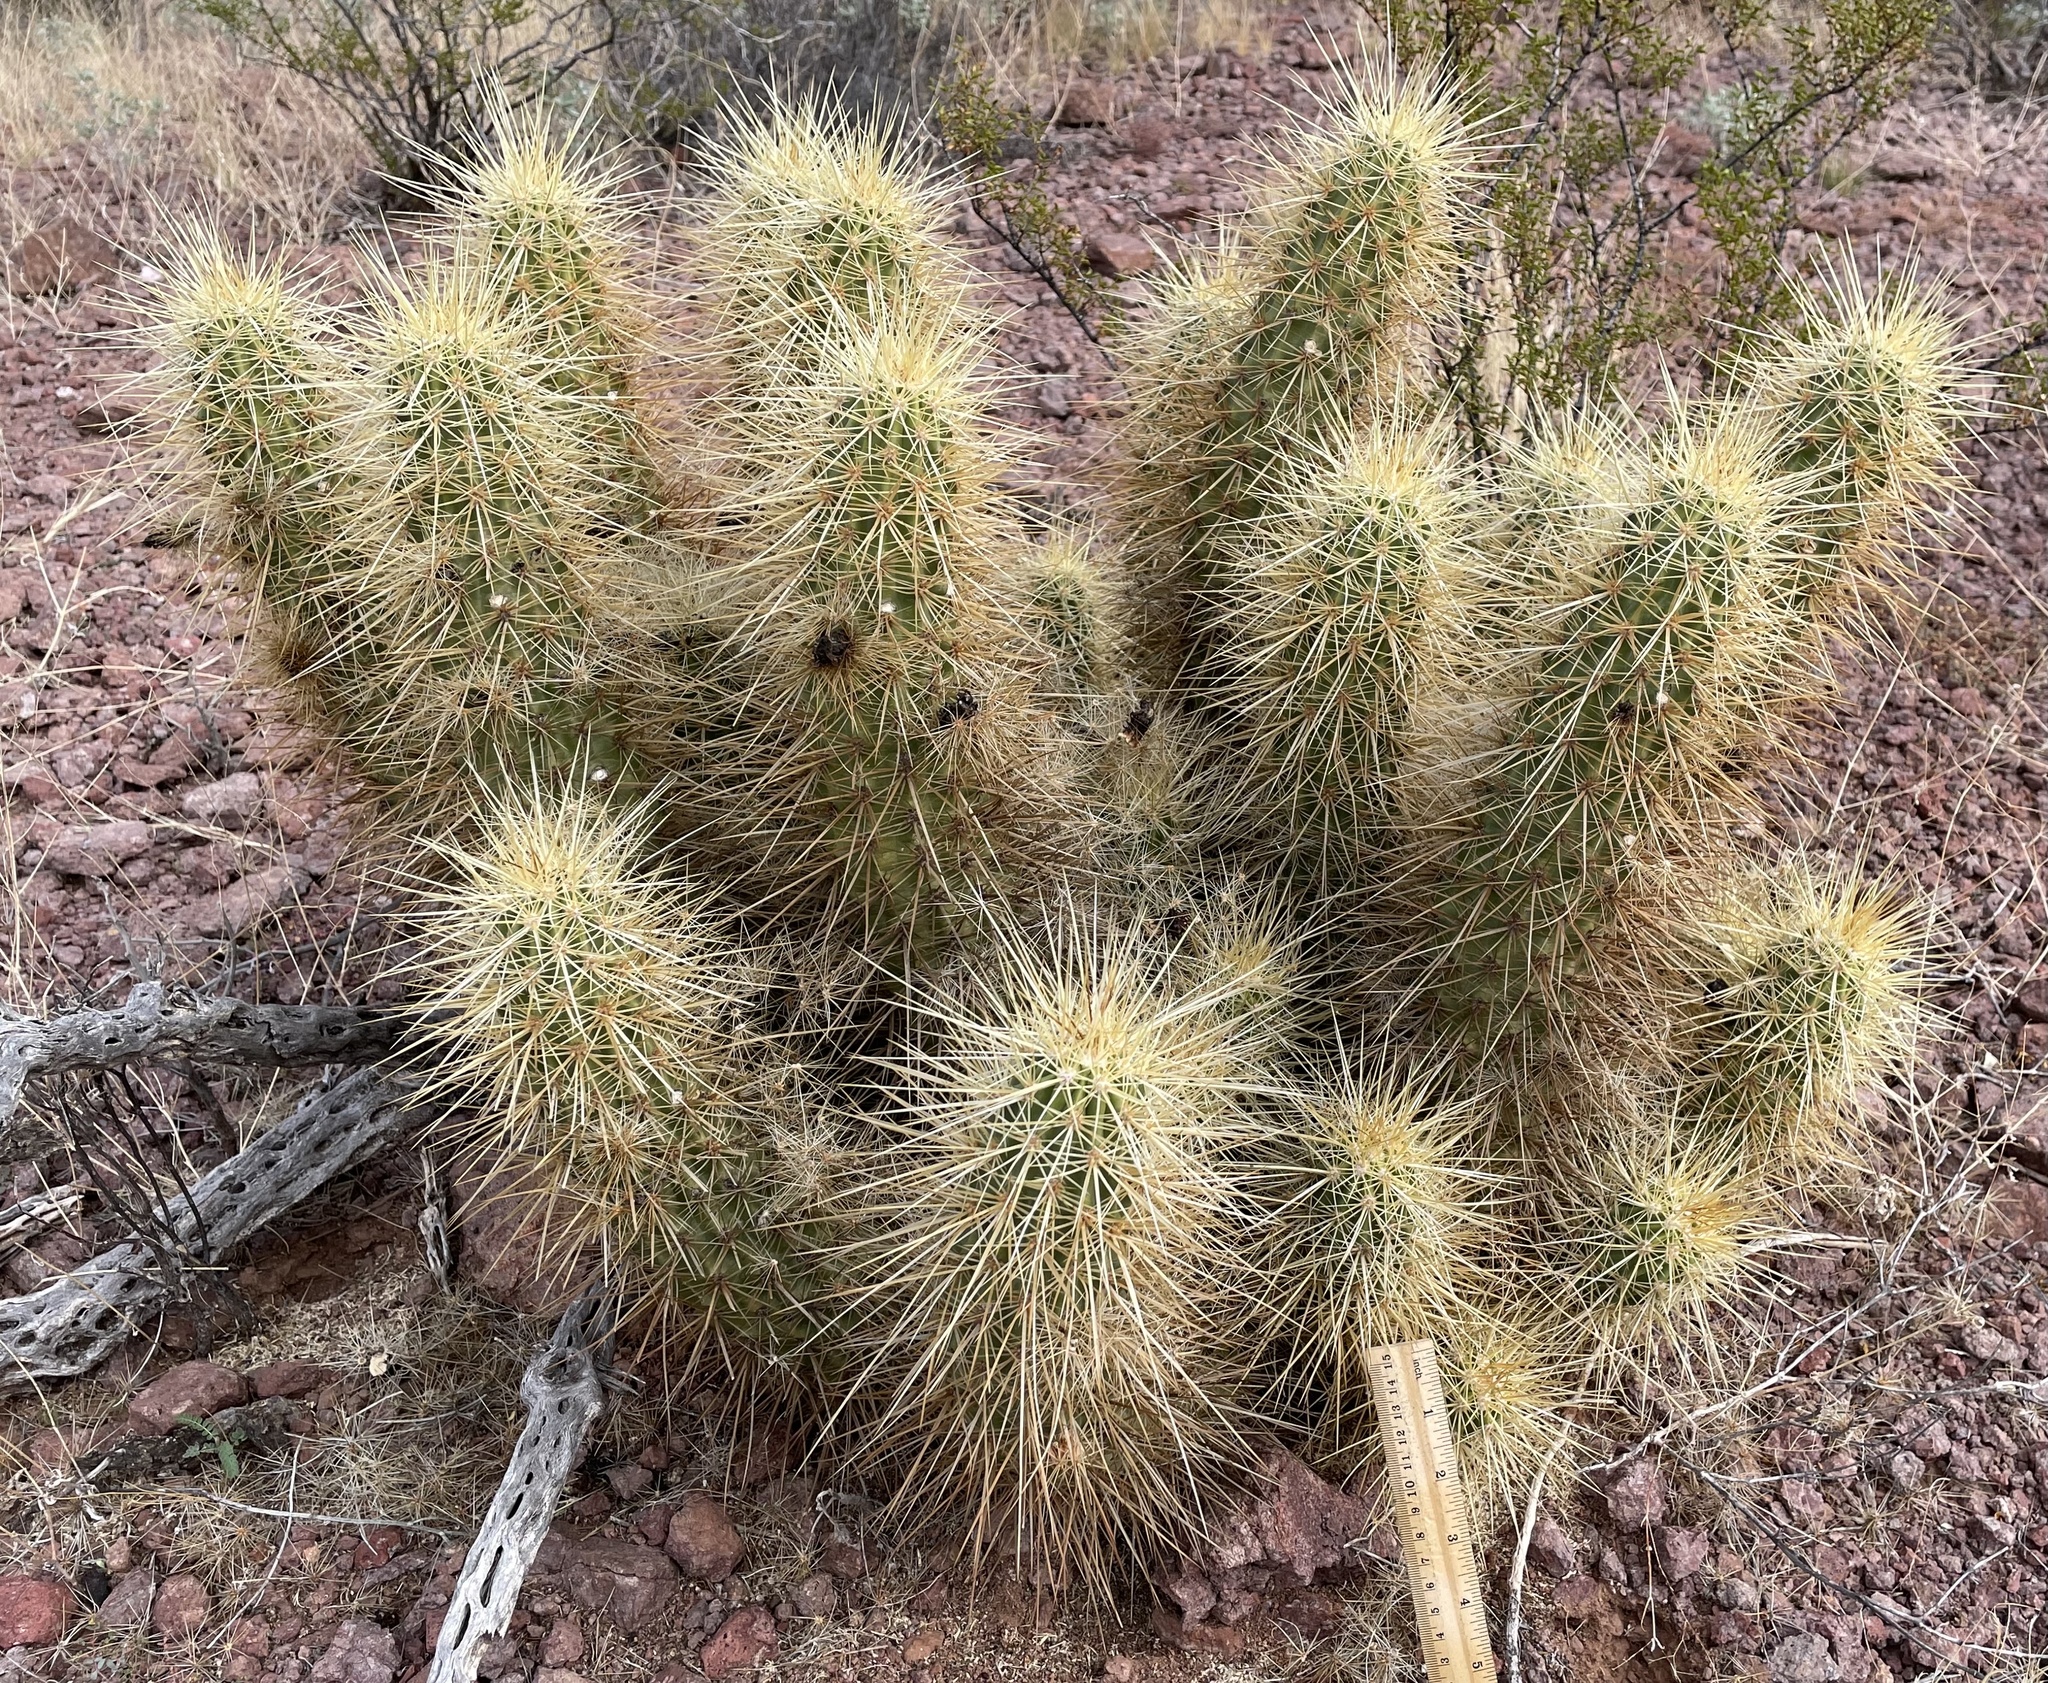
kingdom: Plantae
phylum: Tracheophyta
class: Magnoliopsida
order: Caryophyllales
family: Cactaceae
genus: Echinocereus
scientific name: Echinocereus nicholii
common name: Nichol's hedgehog cactus
